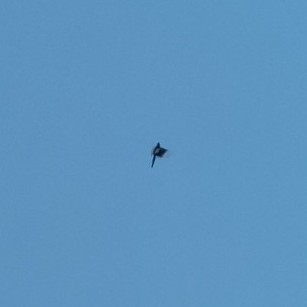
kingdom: Animalia
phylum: Chordata
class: Aves
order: Passeriformes
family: Corvidae
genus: Pica
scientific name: Pica pica
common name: Eurasian magpie
